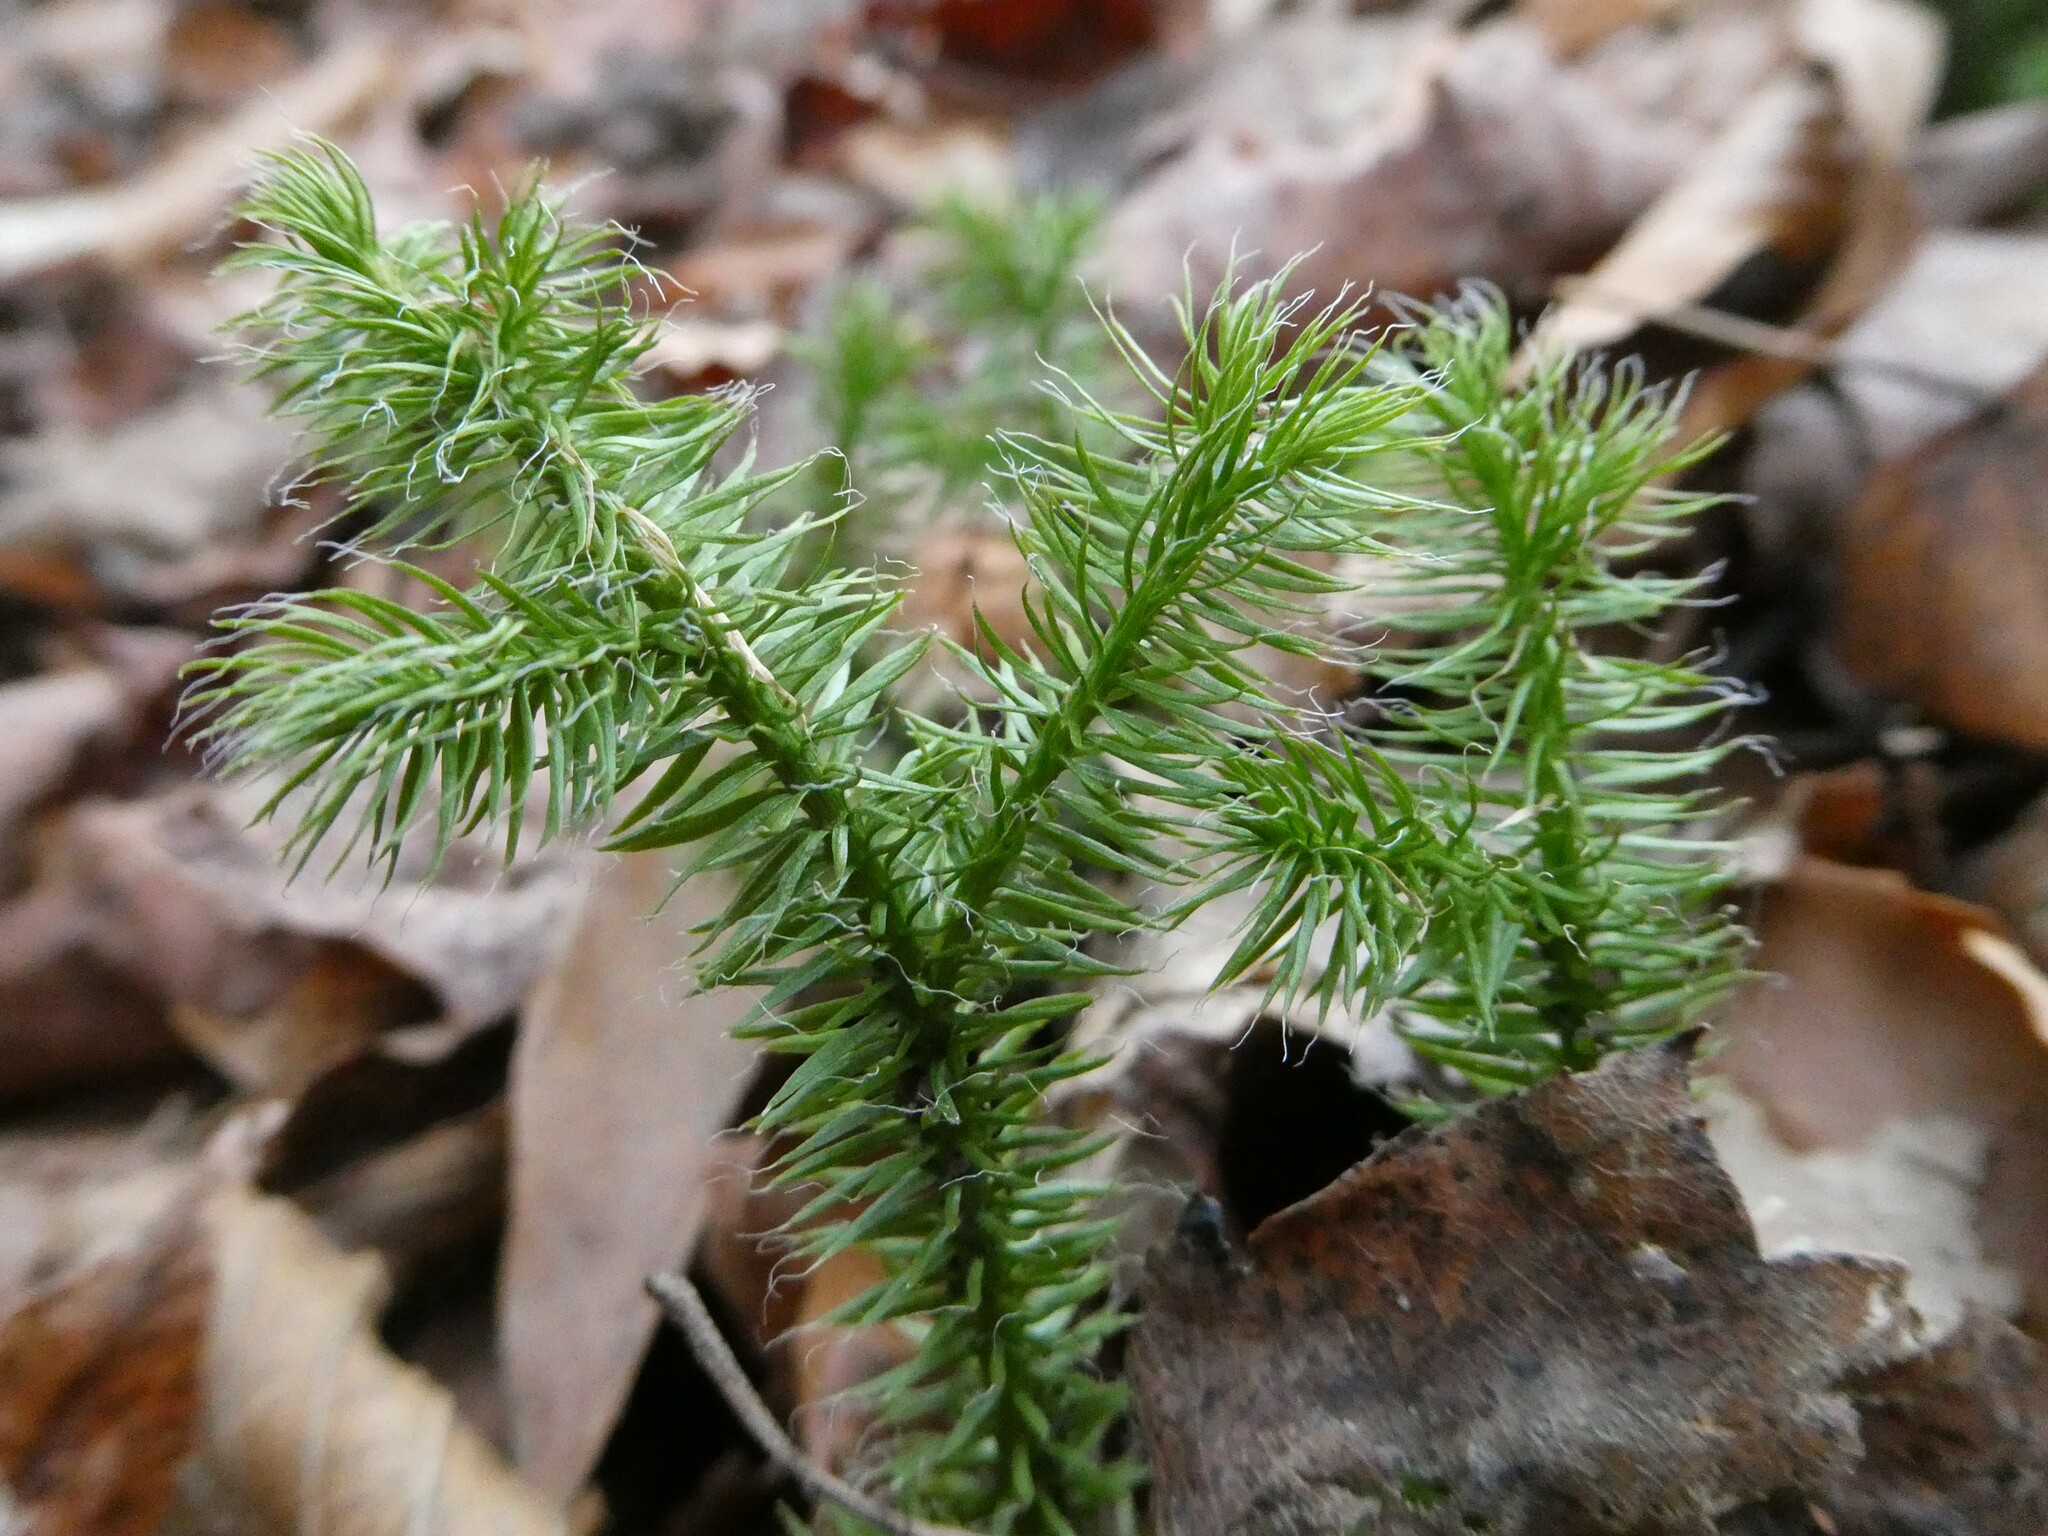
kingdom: Plantae
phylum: Tracheophyta
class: Lycopodiopsida
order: Lycopodiales
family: Lycopodiaceae
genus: Lycopodium
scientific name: Lycopodium clavatum
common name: Stag's-horn clubmoss
